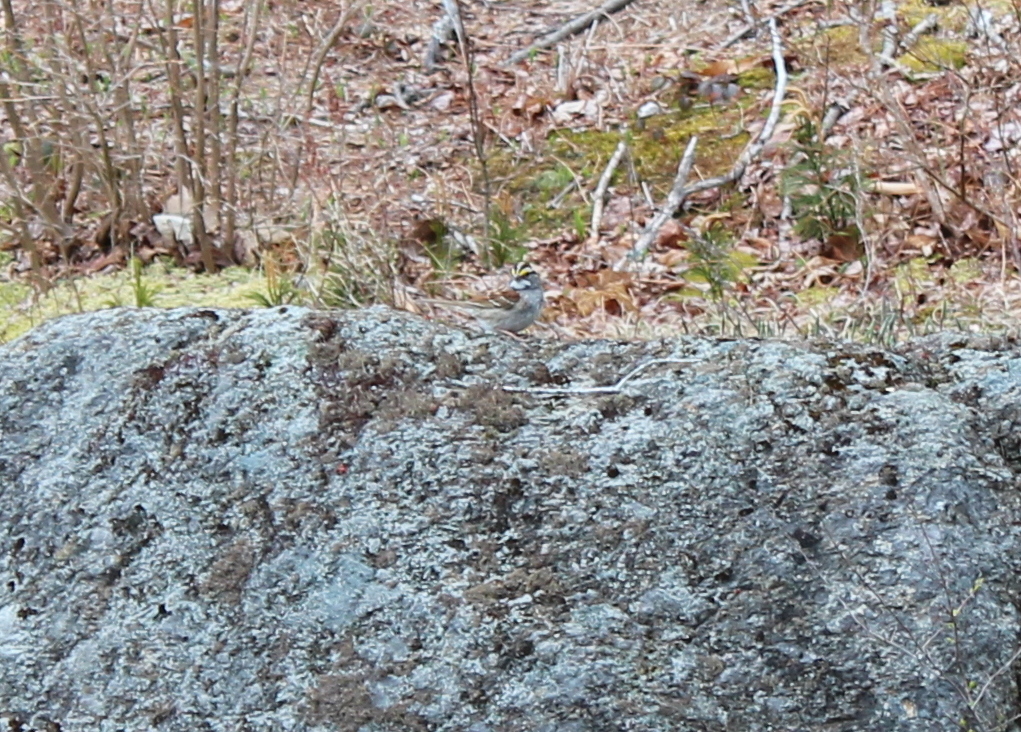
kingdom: Animalia
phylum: Chordata
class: Aves
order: Passeriformes
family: Passerellidae
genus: Zonotrichia
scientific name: Zonotrichia albicollis
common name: White-throated sparrow
